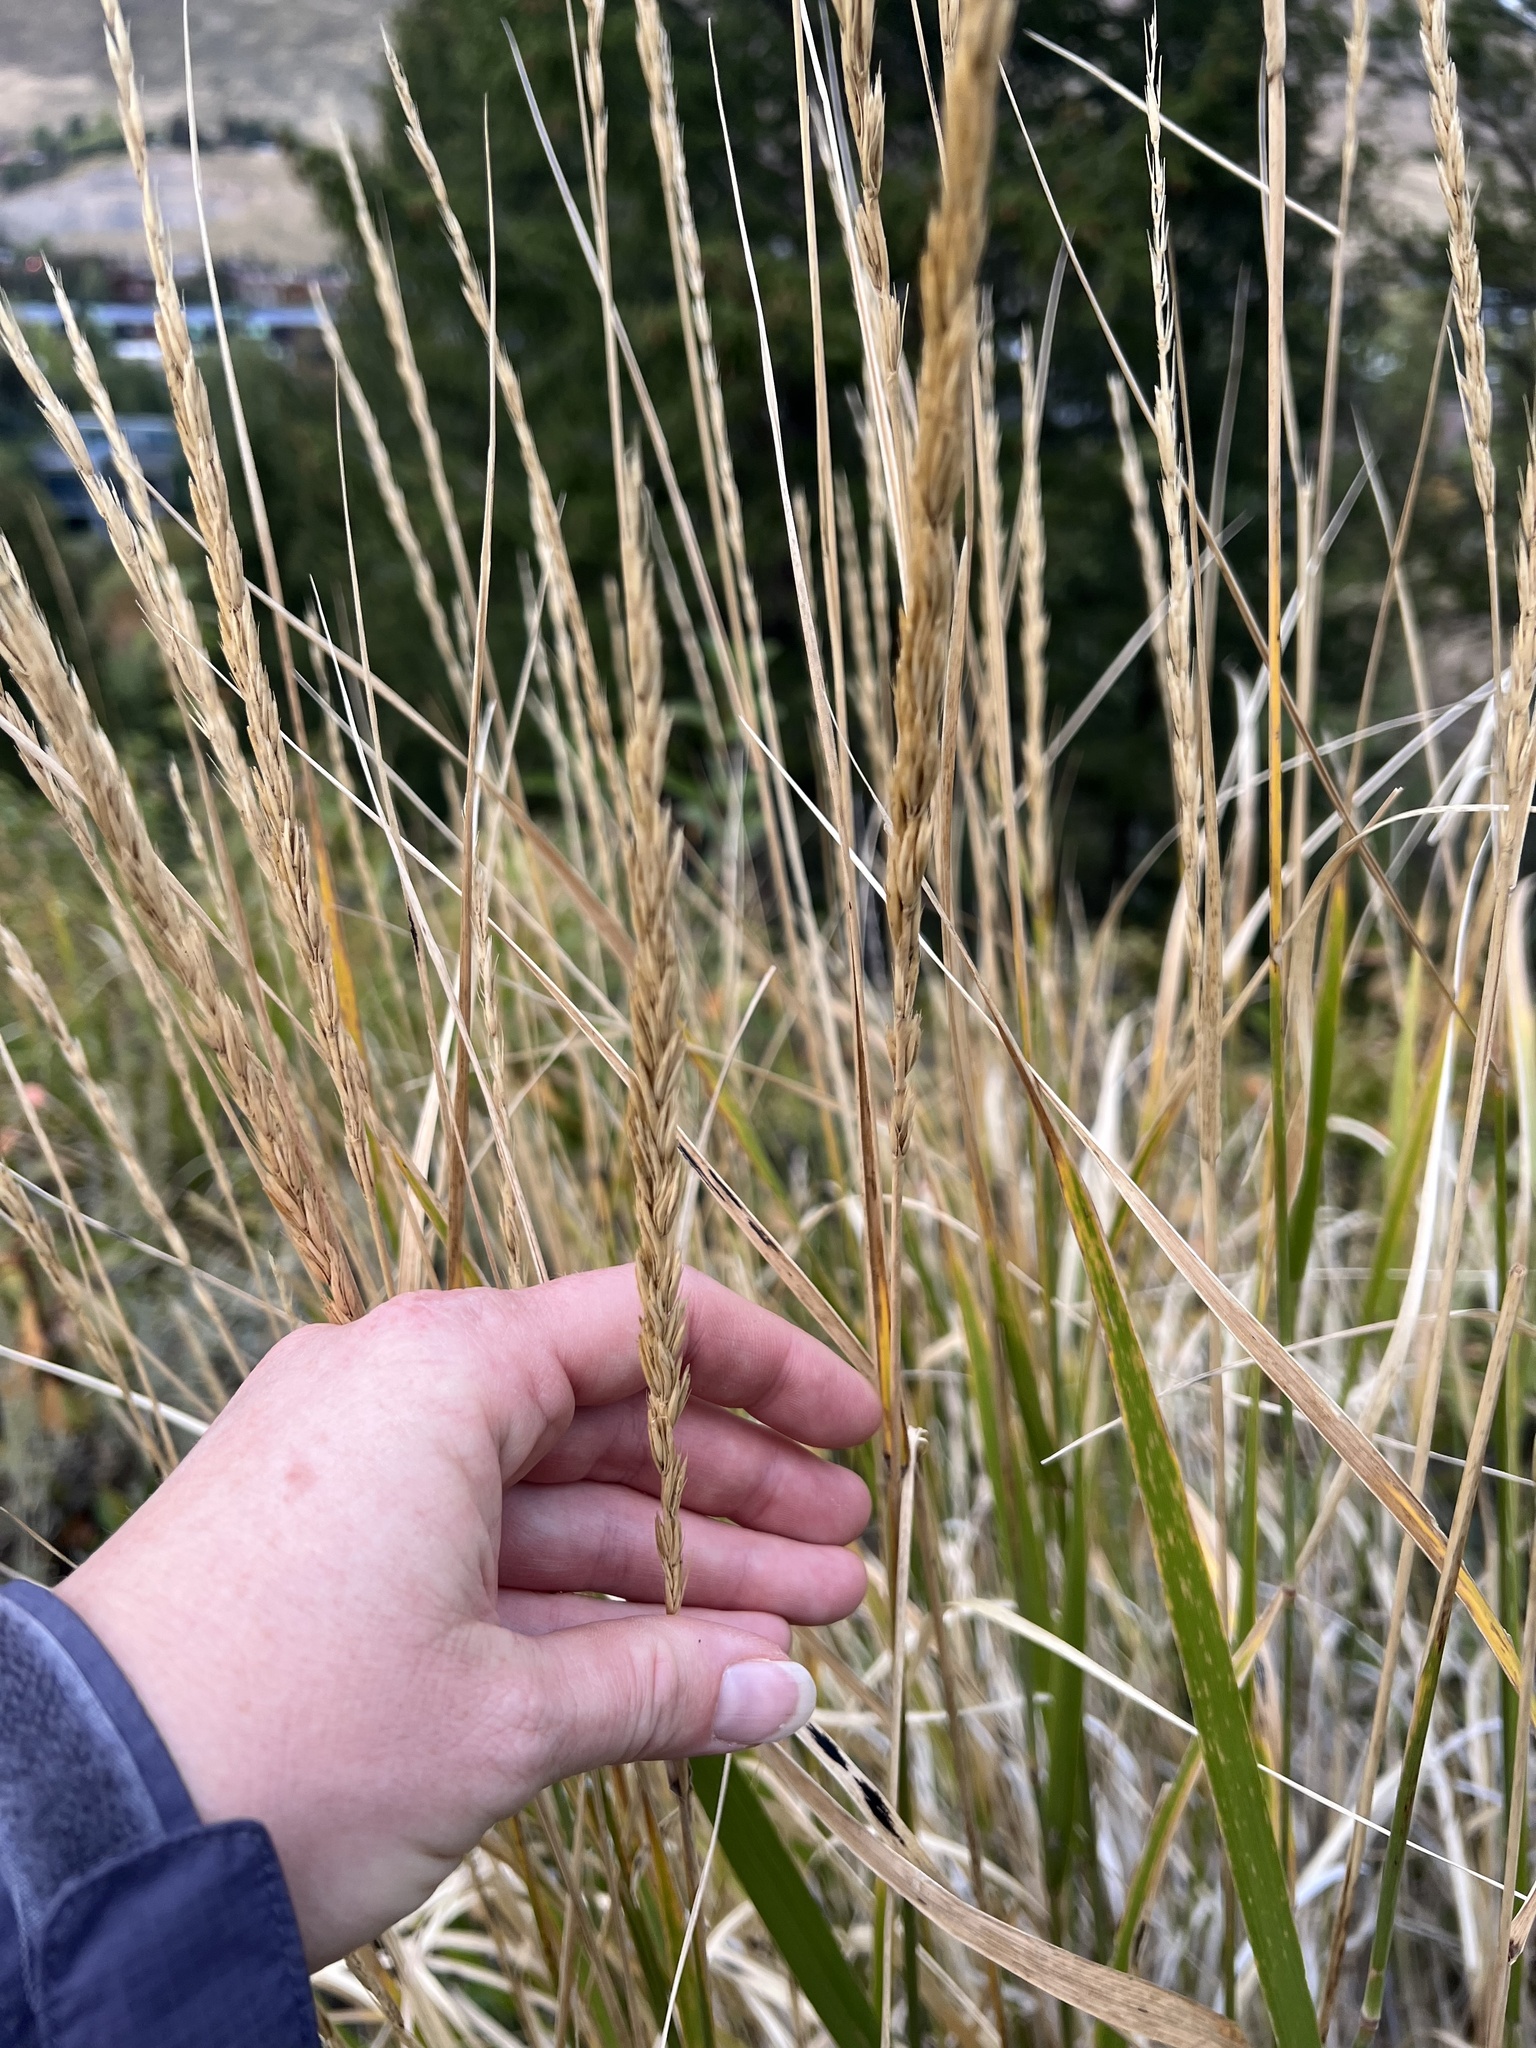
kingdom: Plantae
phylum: Tracheophyta
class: Liliopsida
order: Poales
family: Poaceae
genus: Leymus
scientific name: Leymus cinereus
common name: Basin wild rye
